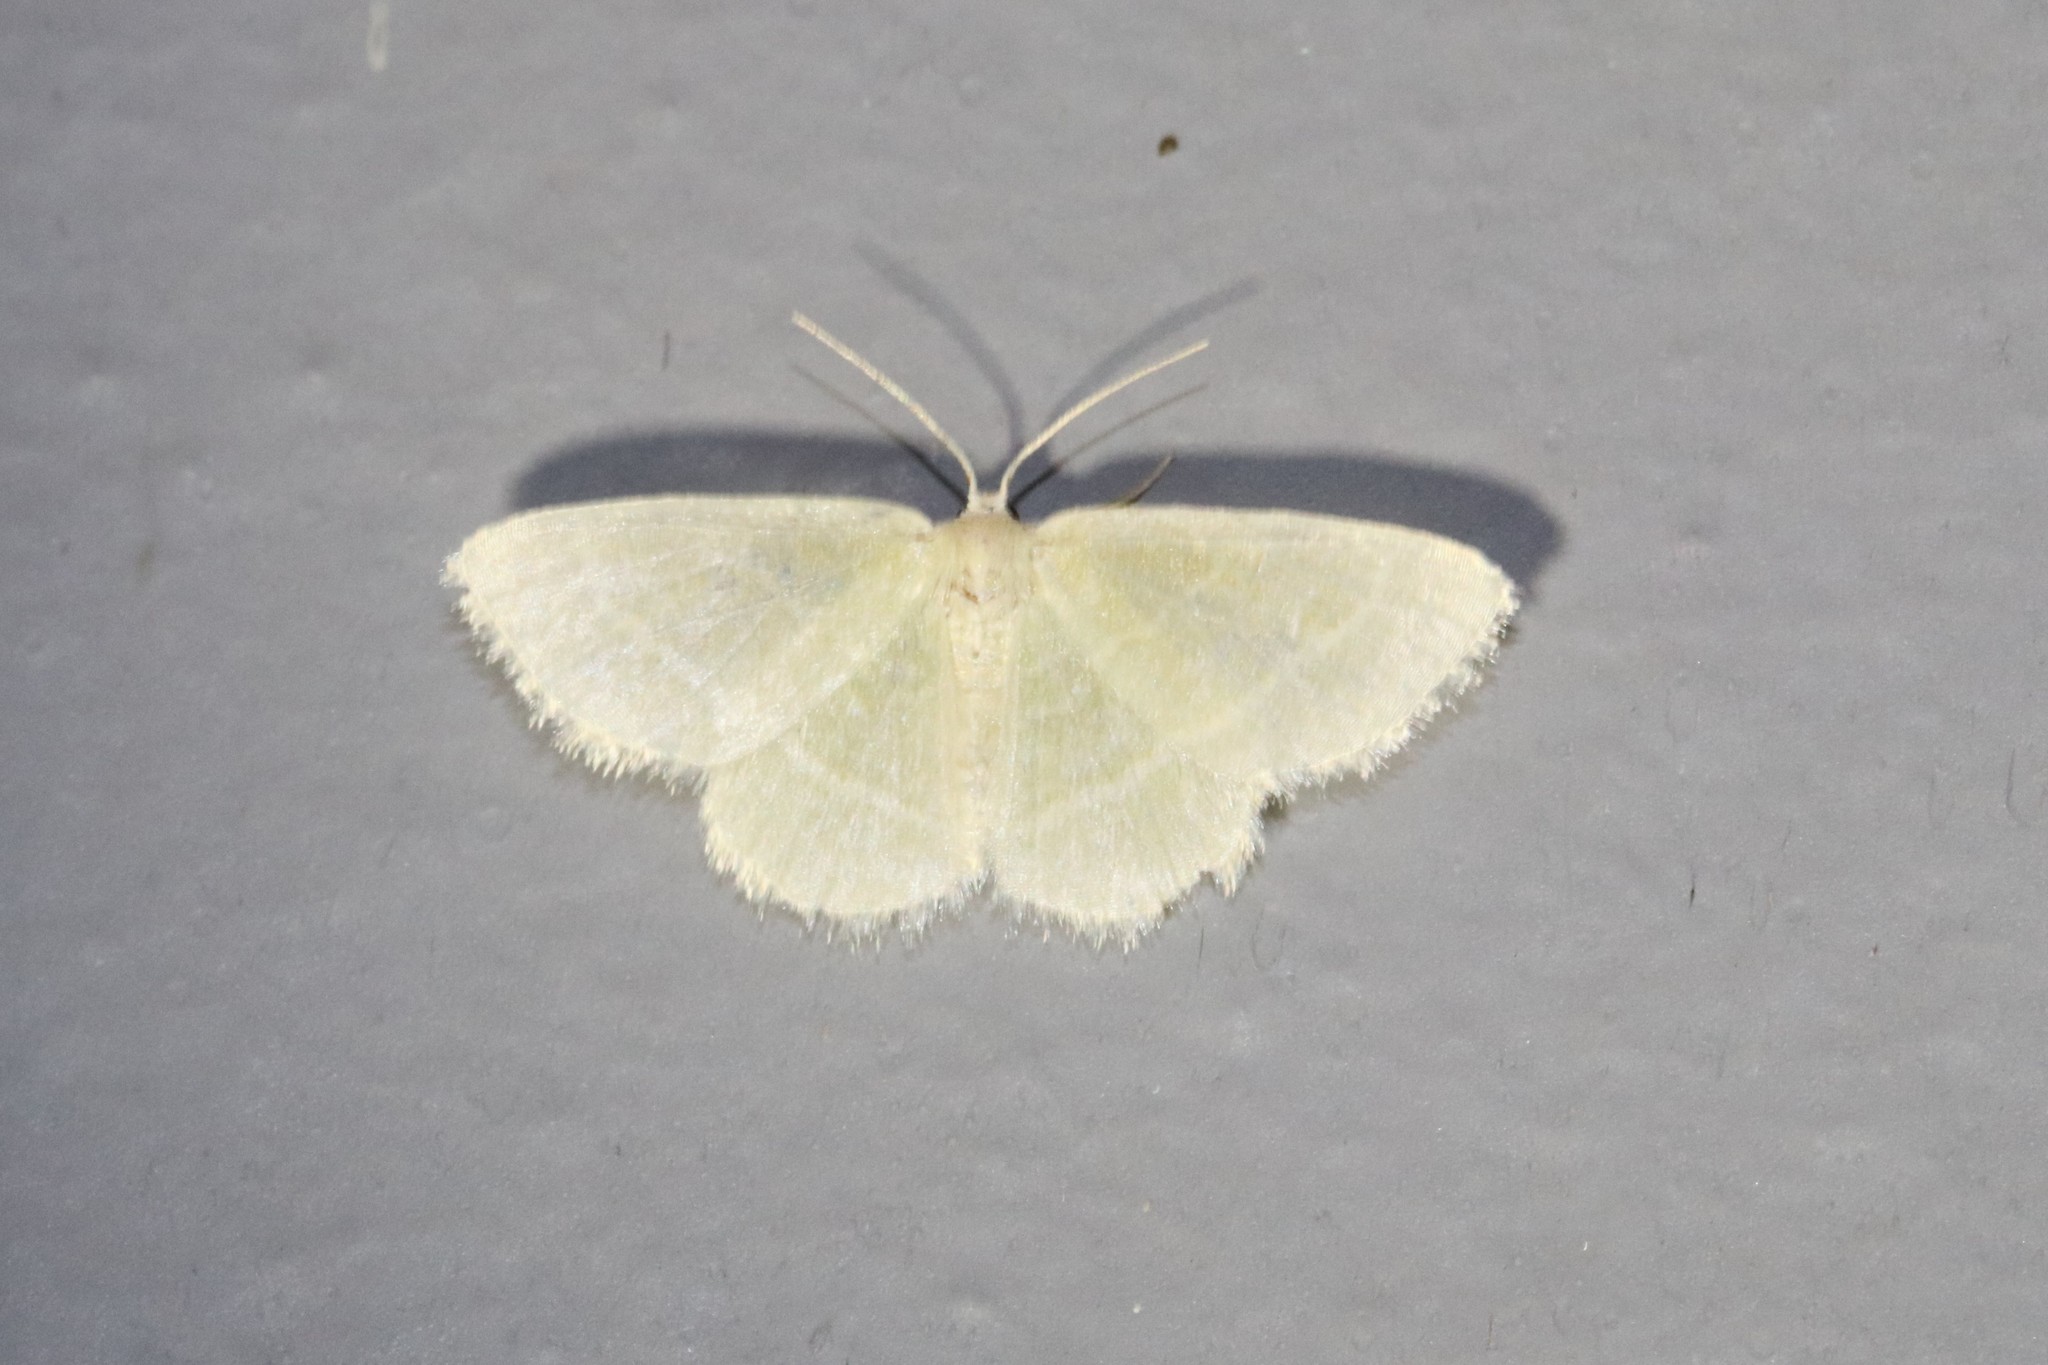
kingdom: Animalia
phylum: Arthropoda
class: Insecta
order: Lepidoptera
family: Geometridae
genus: Chlorochlamys
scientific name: Chlorochlamys chloroleucaria
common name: Blackberry looper
